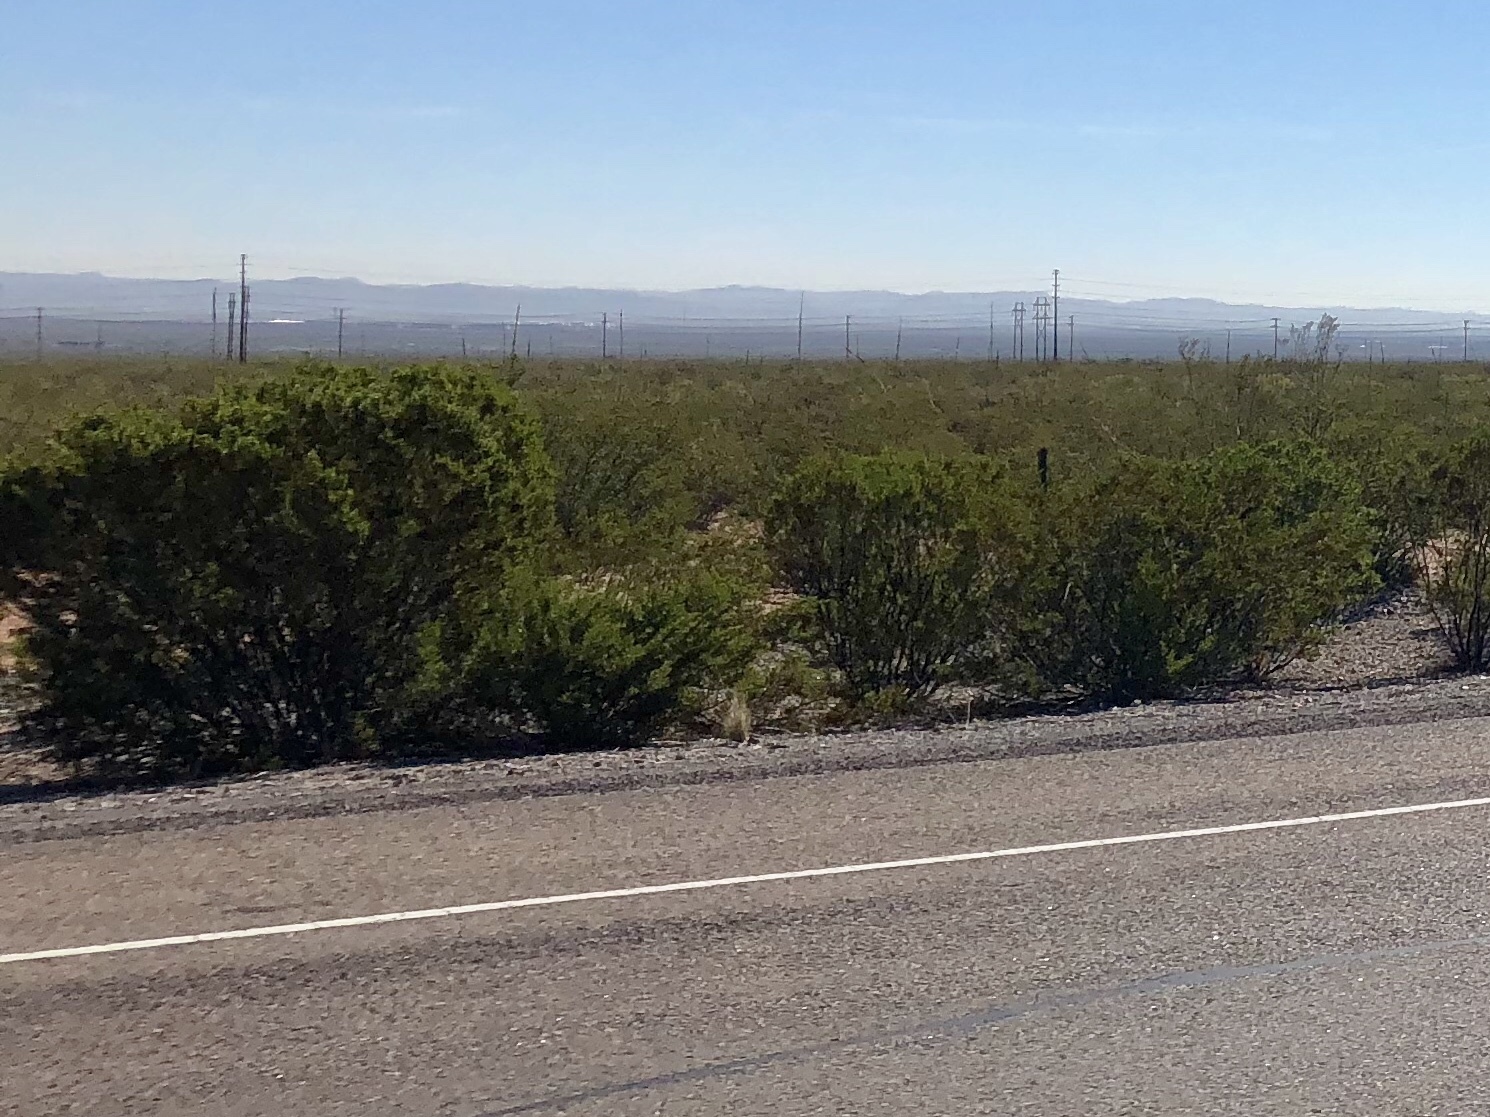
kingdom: Plantae
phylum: Tracheophyta
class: Magnoliopsida
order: Zygophyllales
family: Zygophyllaceae
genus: Larrea
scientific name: Larrea tridentata
